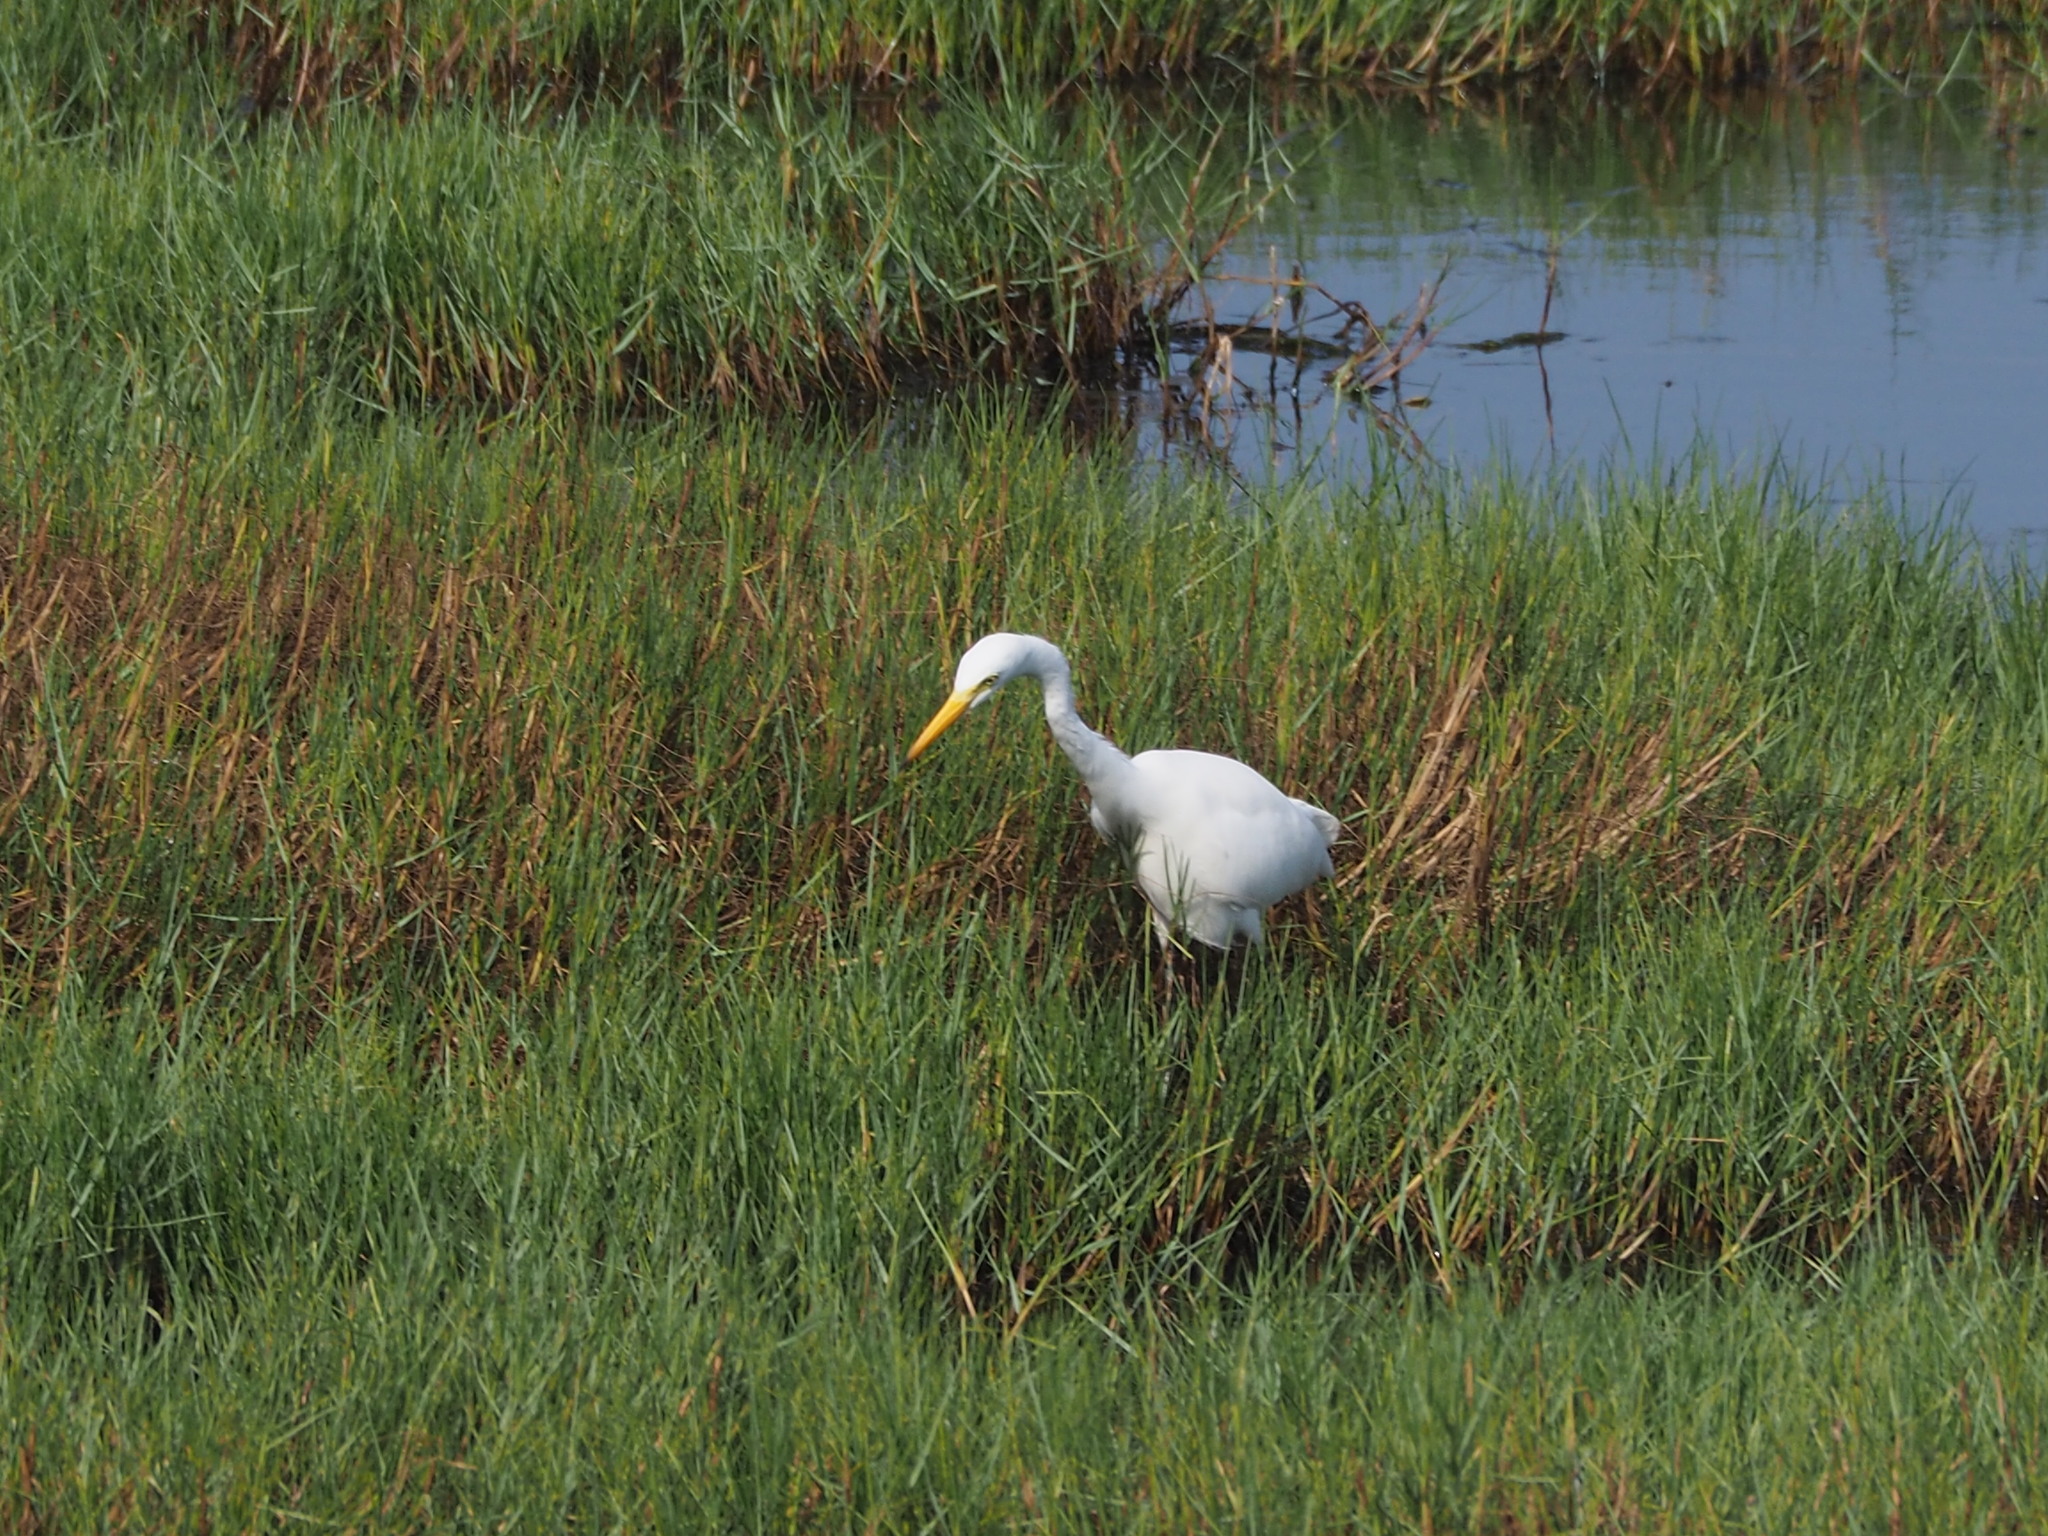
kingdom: Animalia
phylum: Chordata
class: Aves
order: Pelecaniformes
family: Ardeidae
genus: Ardea
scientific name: Ardea alba
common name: Great egret
